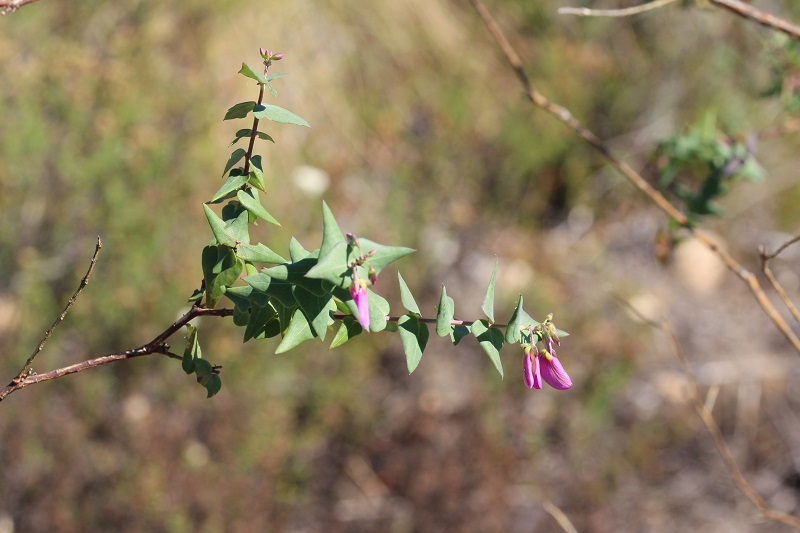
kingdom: Plantae
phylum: Tracheophyta
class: Magnoliopsida
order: Fabales
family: Polygalaceae
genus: Polygala
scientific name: Polygala fruticosa
